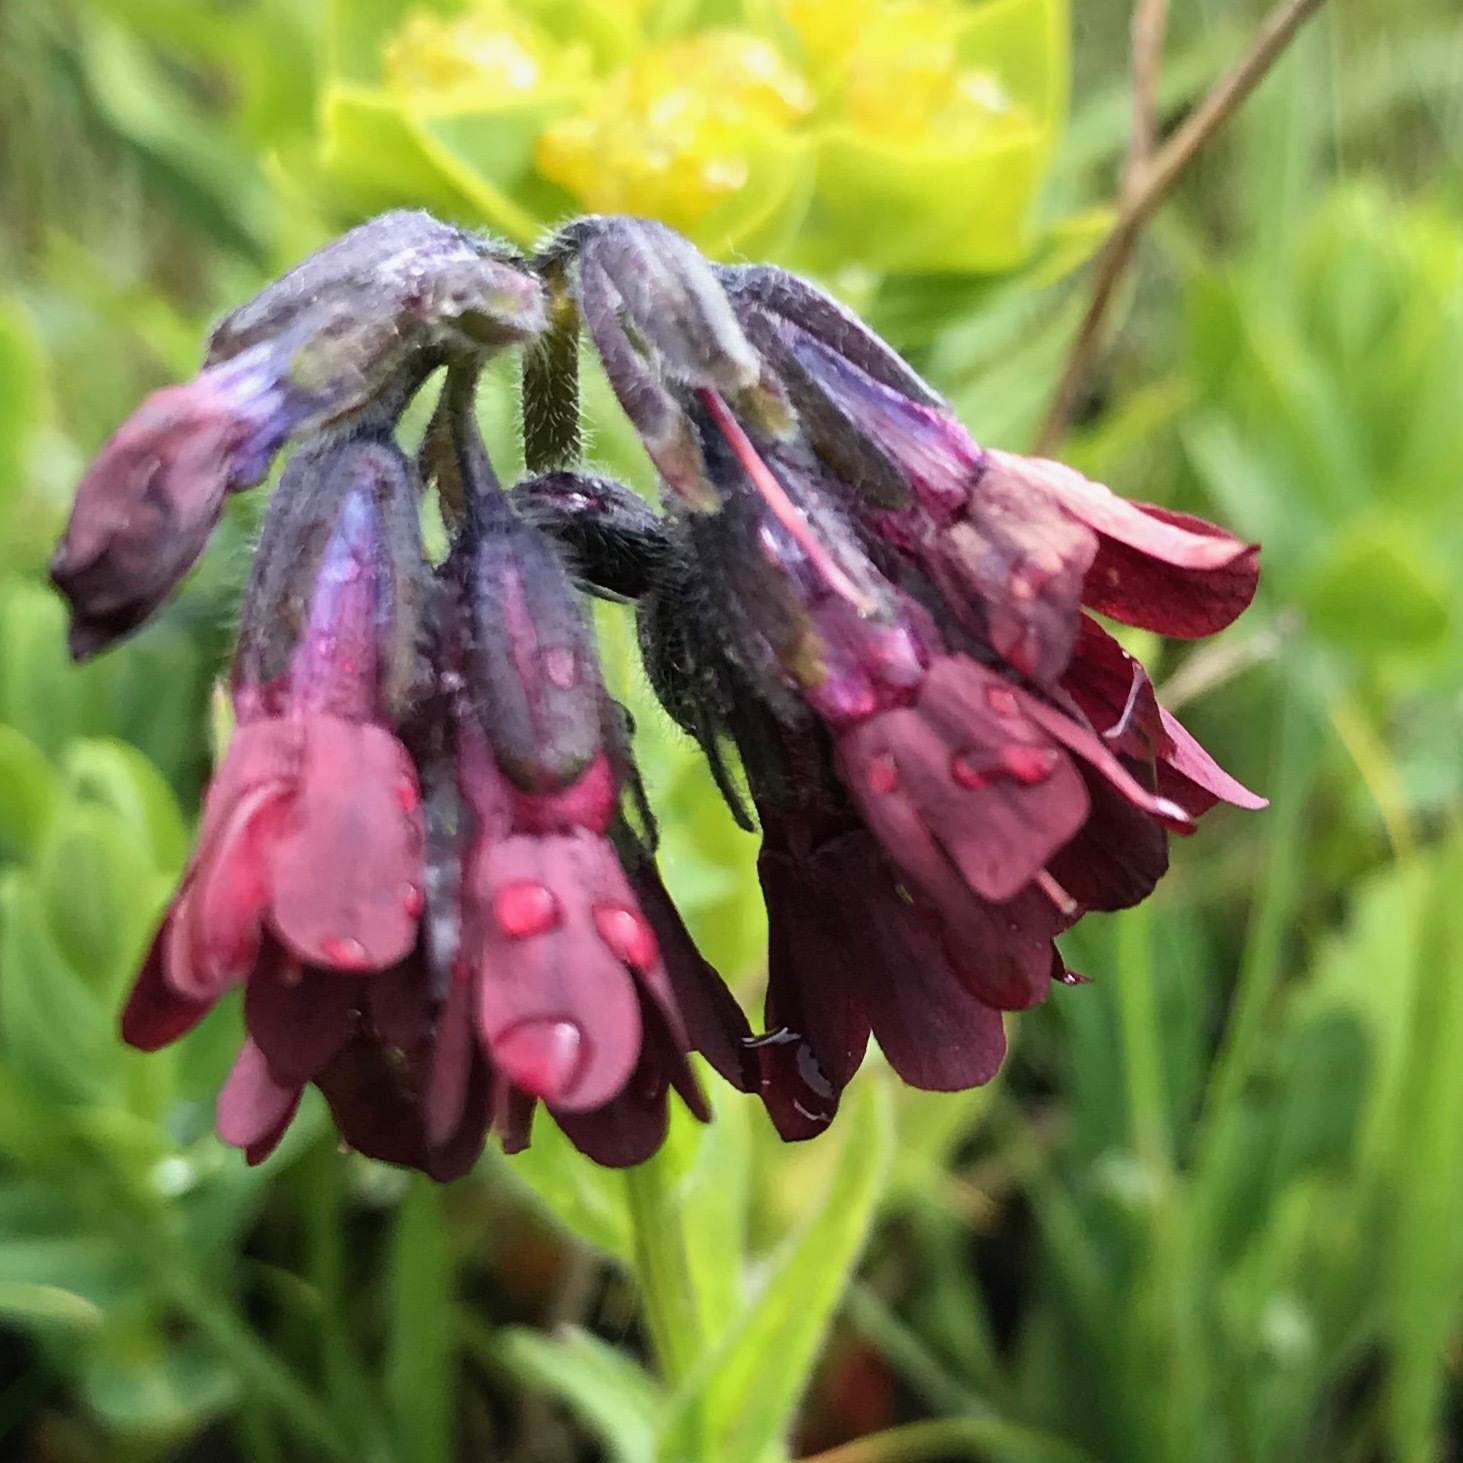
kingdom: Plantae
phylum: Tracheophyta
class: Magnoliopsida
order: Boraginales
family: Boraginaceae
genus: Lindelofia
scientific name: Lindelofia olgae
